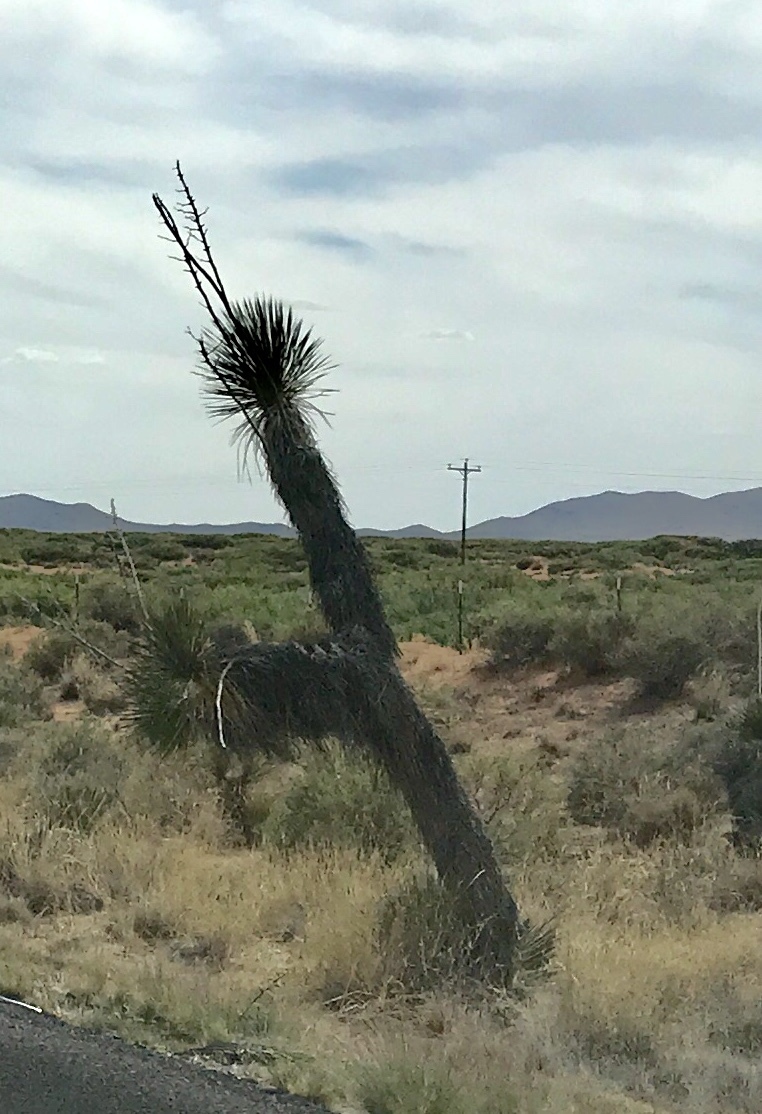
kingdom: Plantae
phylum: Tracheophyta
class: Liliopsida
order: Asparagales
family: Asparagaceae
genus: Yucca
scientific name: Yucca elata
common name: Palmella
